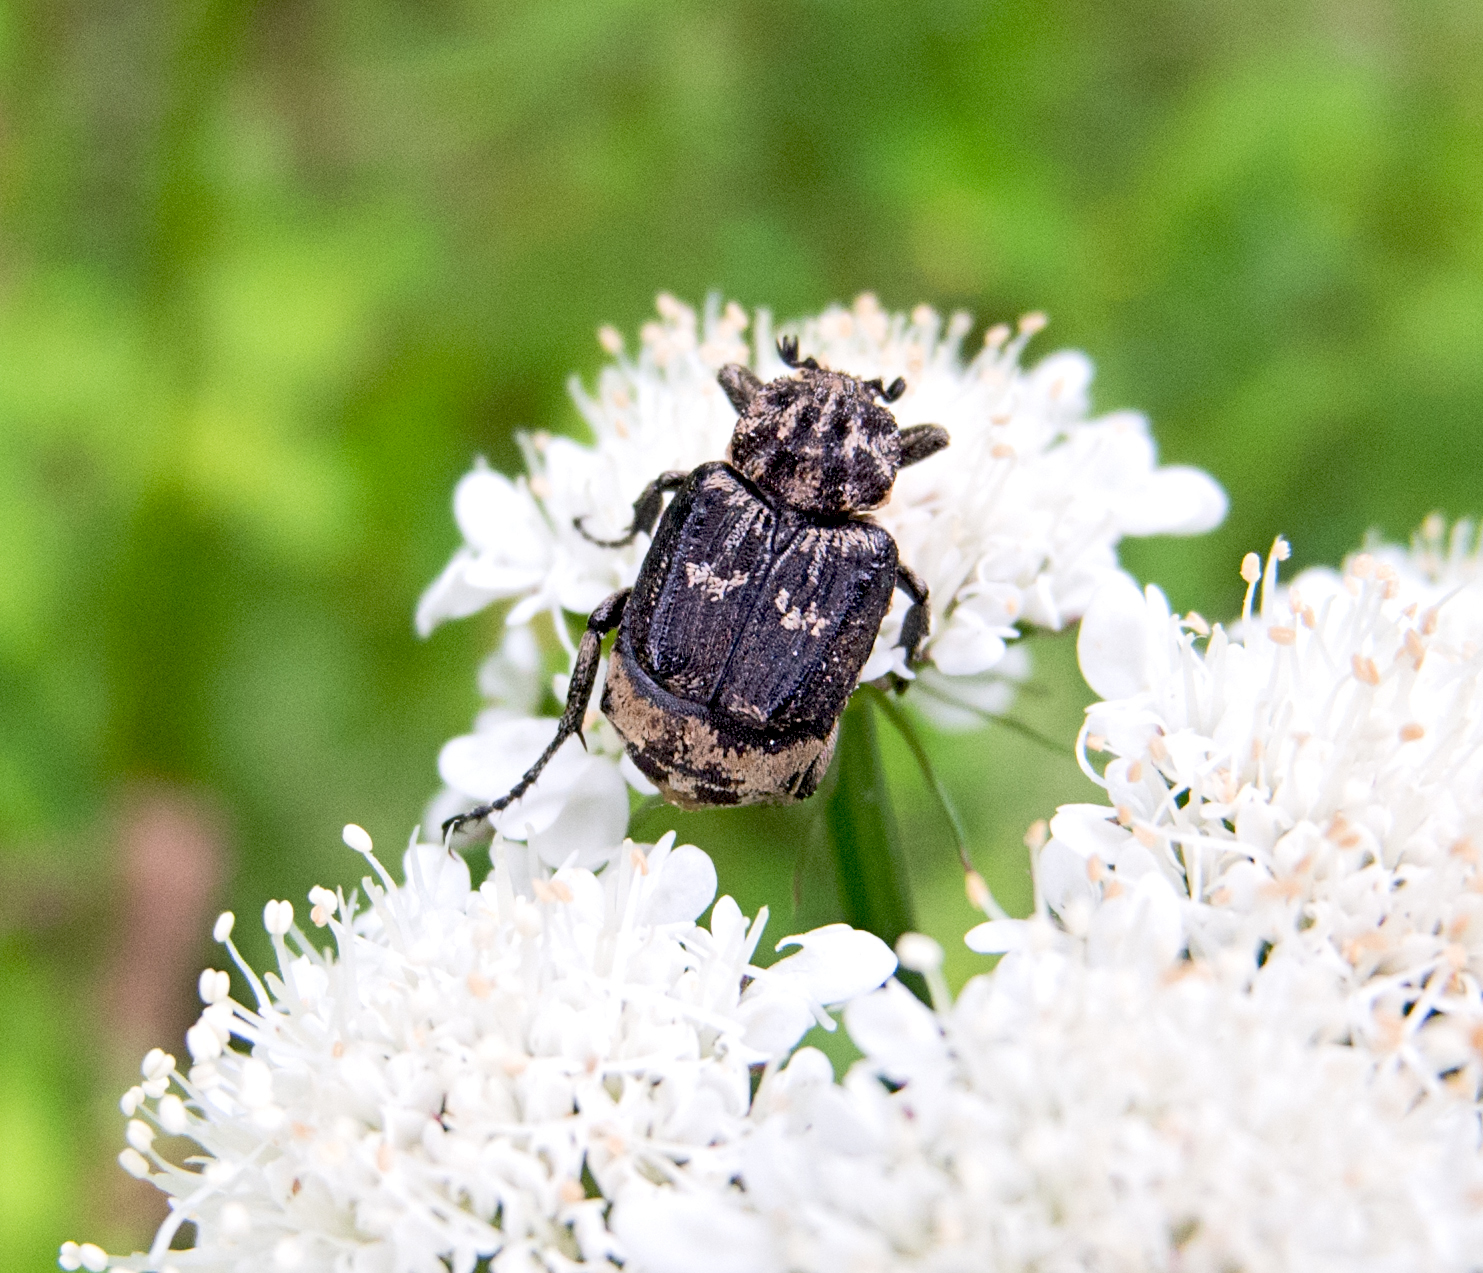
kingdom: Animalia
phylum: Arthropoda
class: Insecta
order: Coleoptera
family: Scarabaeidae
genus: Valgus
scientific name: Valgus hemipterus
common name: Bug flower chafer
